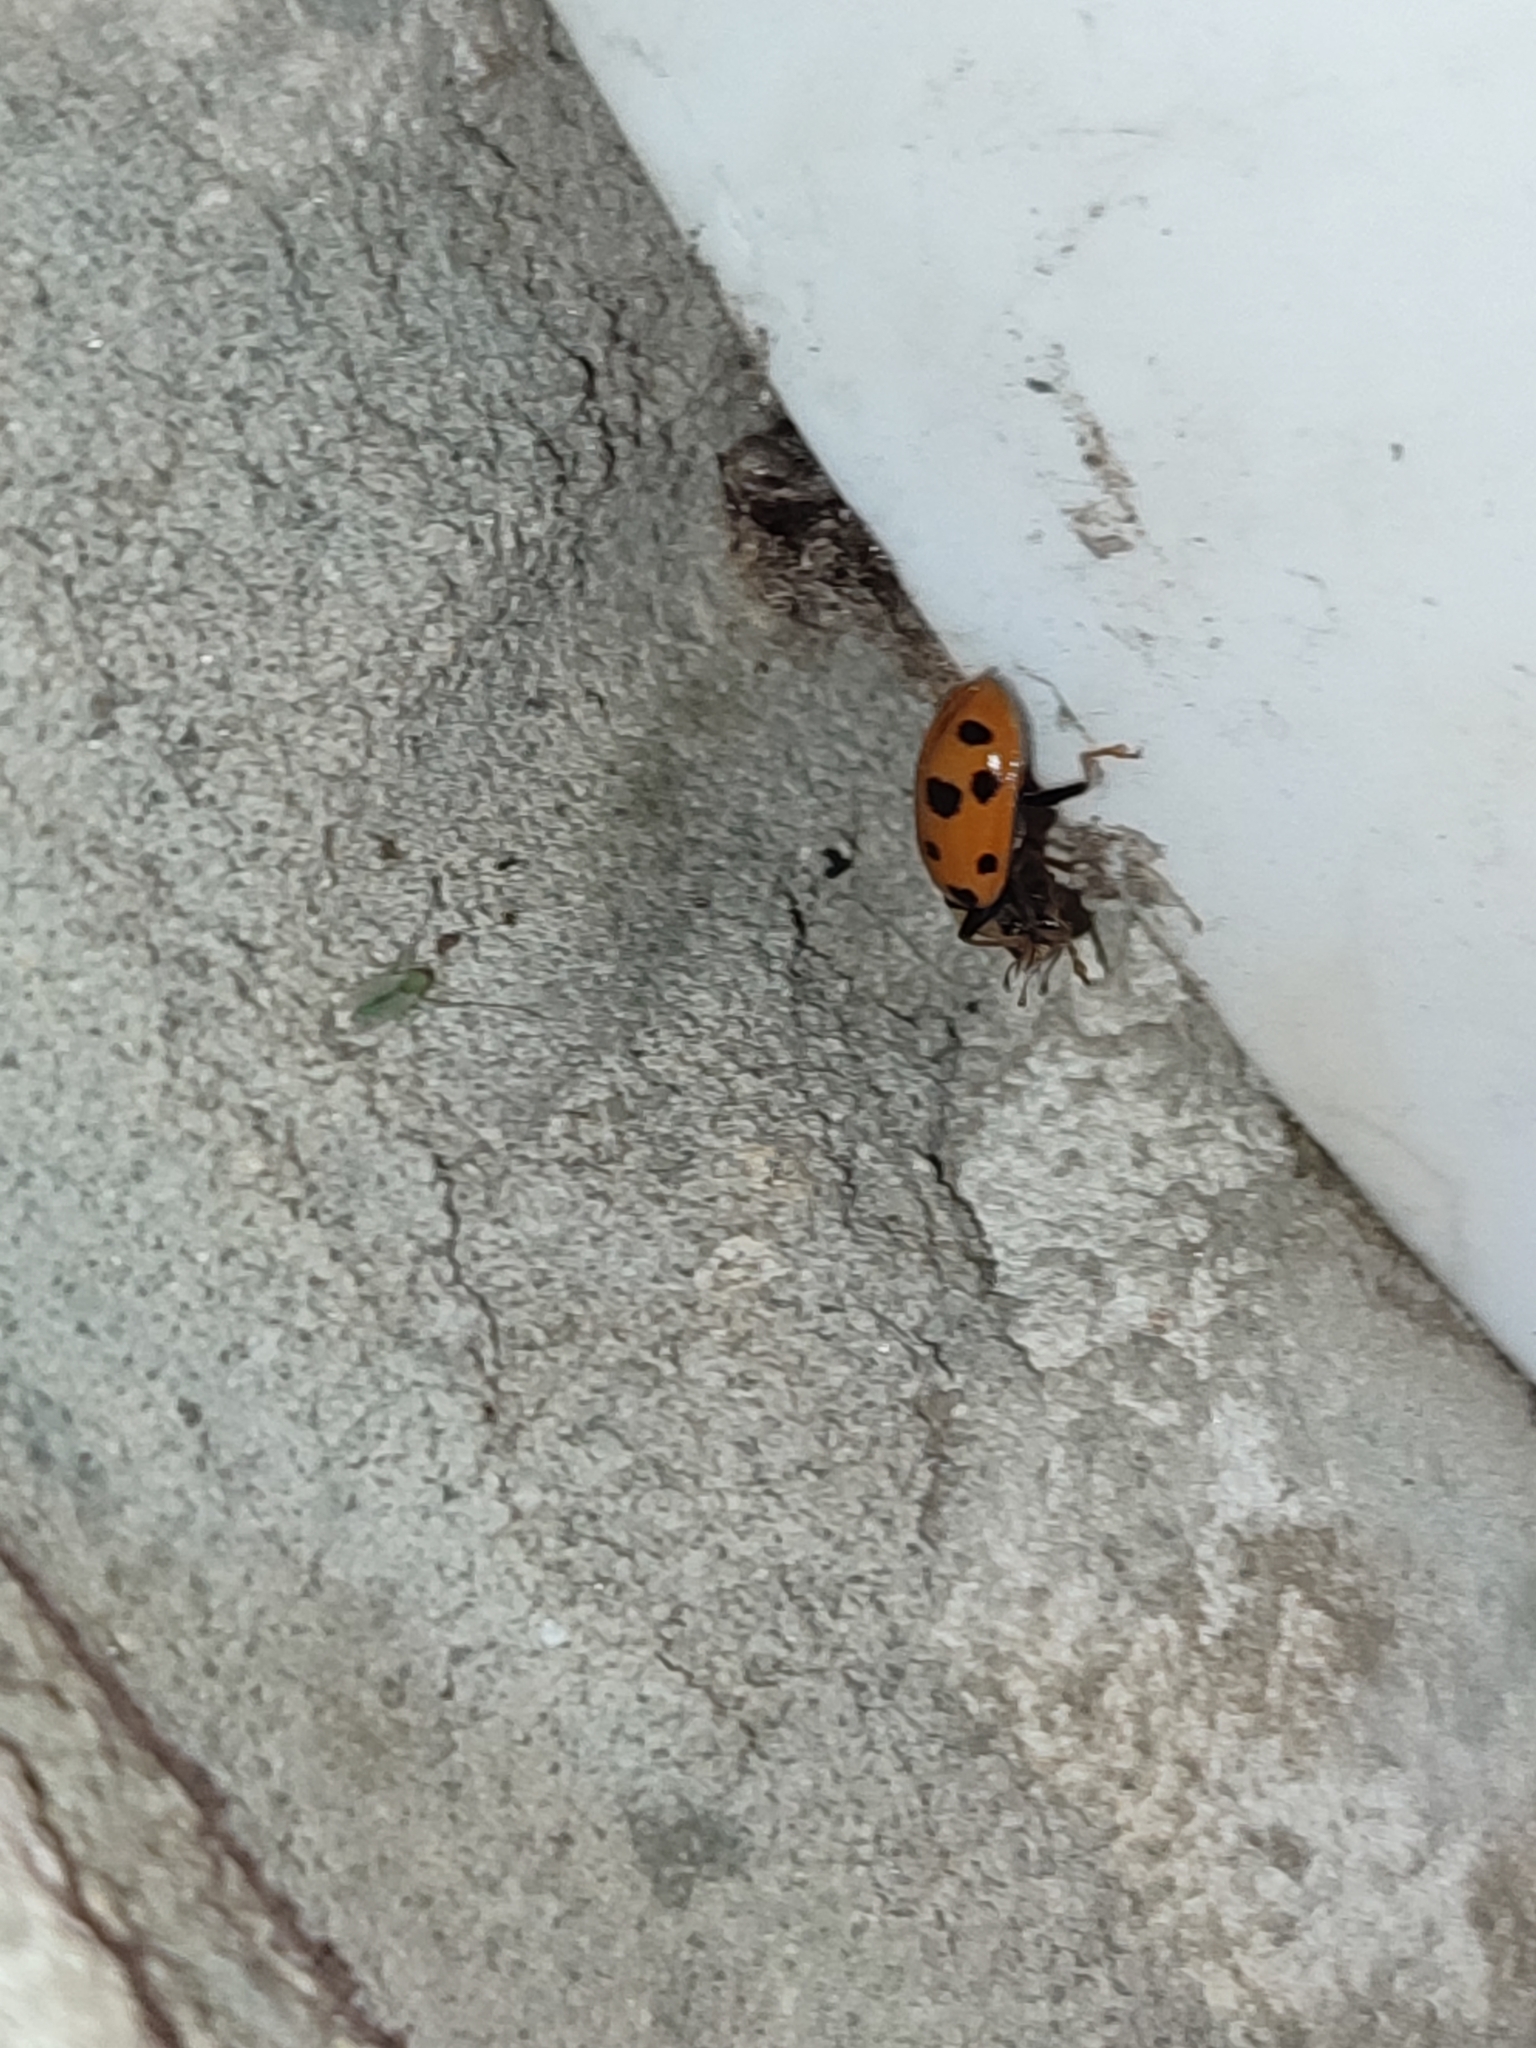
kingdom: Animalia
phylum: Arthropoda
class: Insecta
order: Coleoptera
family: Coccinellidae
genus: Hippodamia
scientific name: Hippodamia tredecimpunctata
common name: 13-spot ladybird
